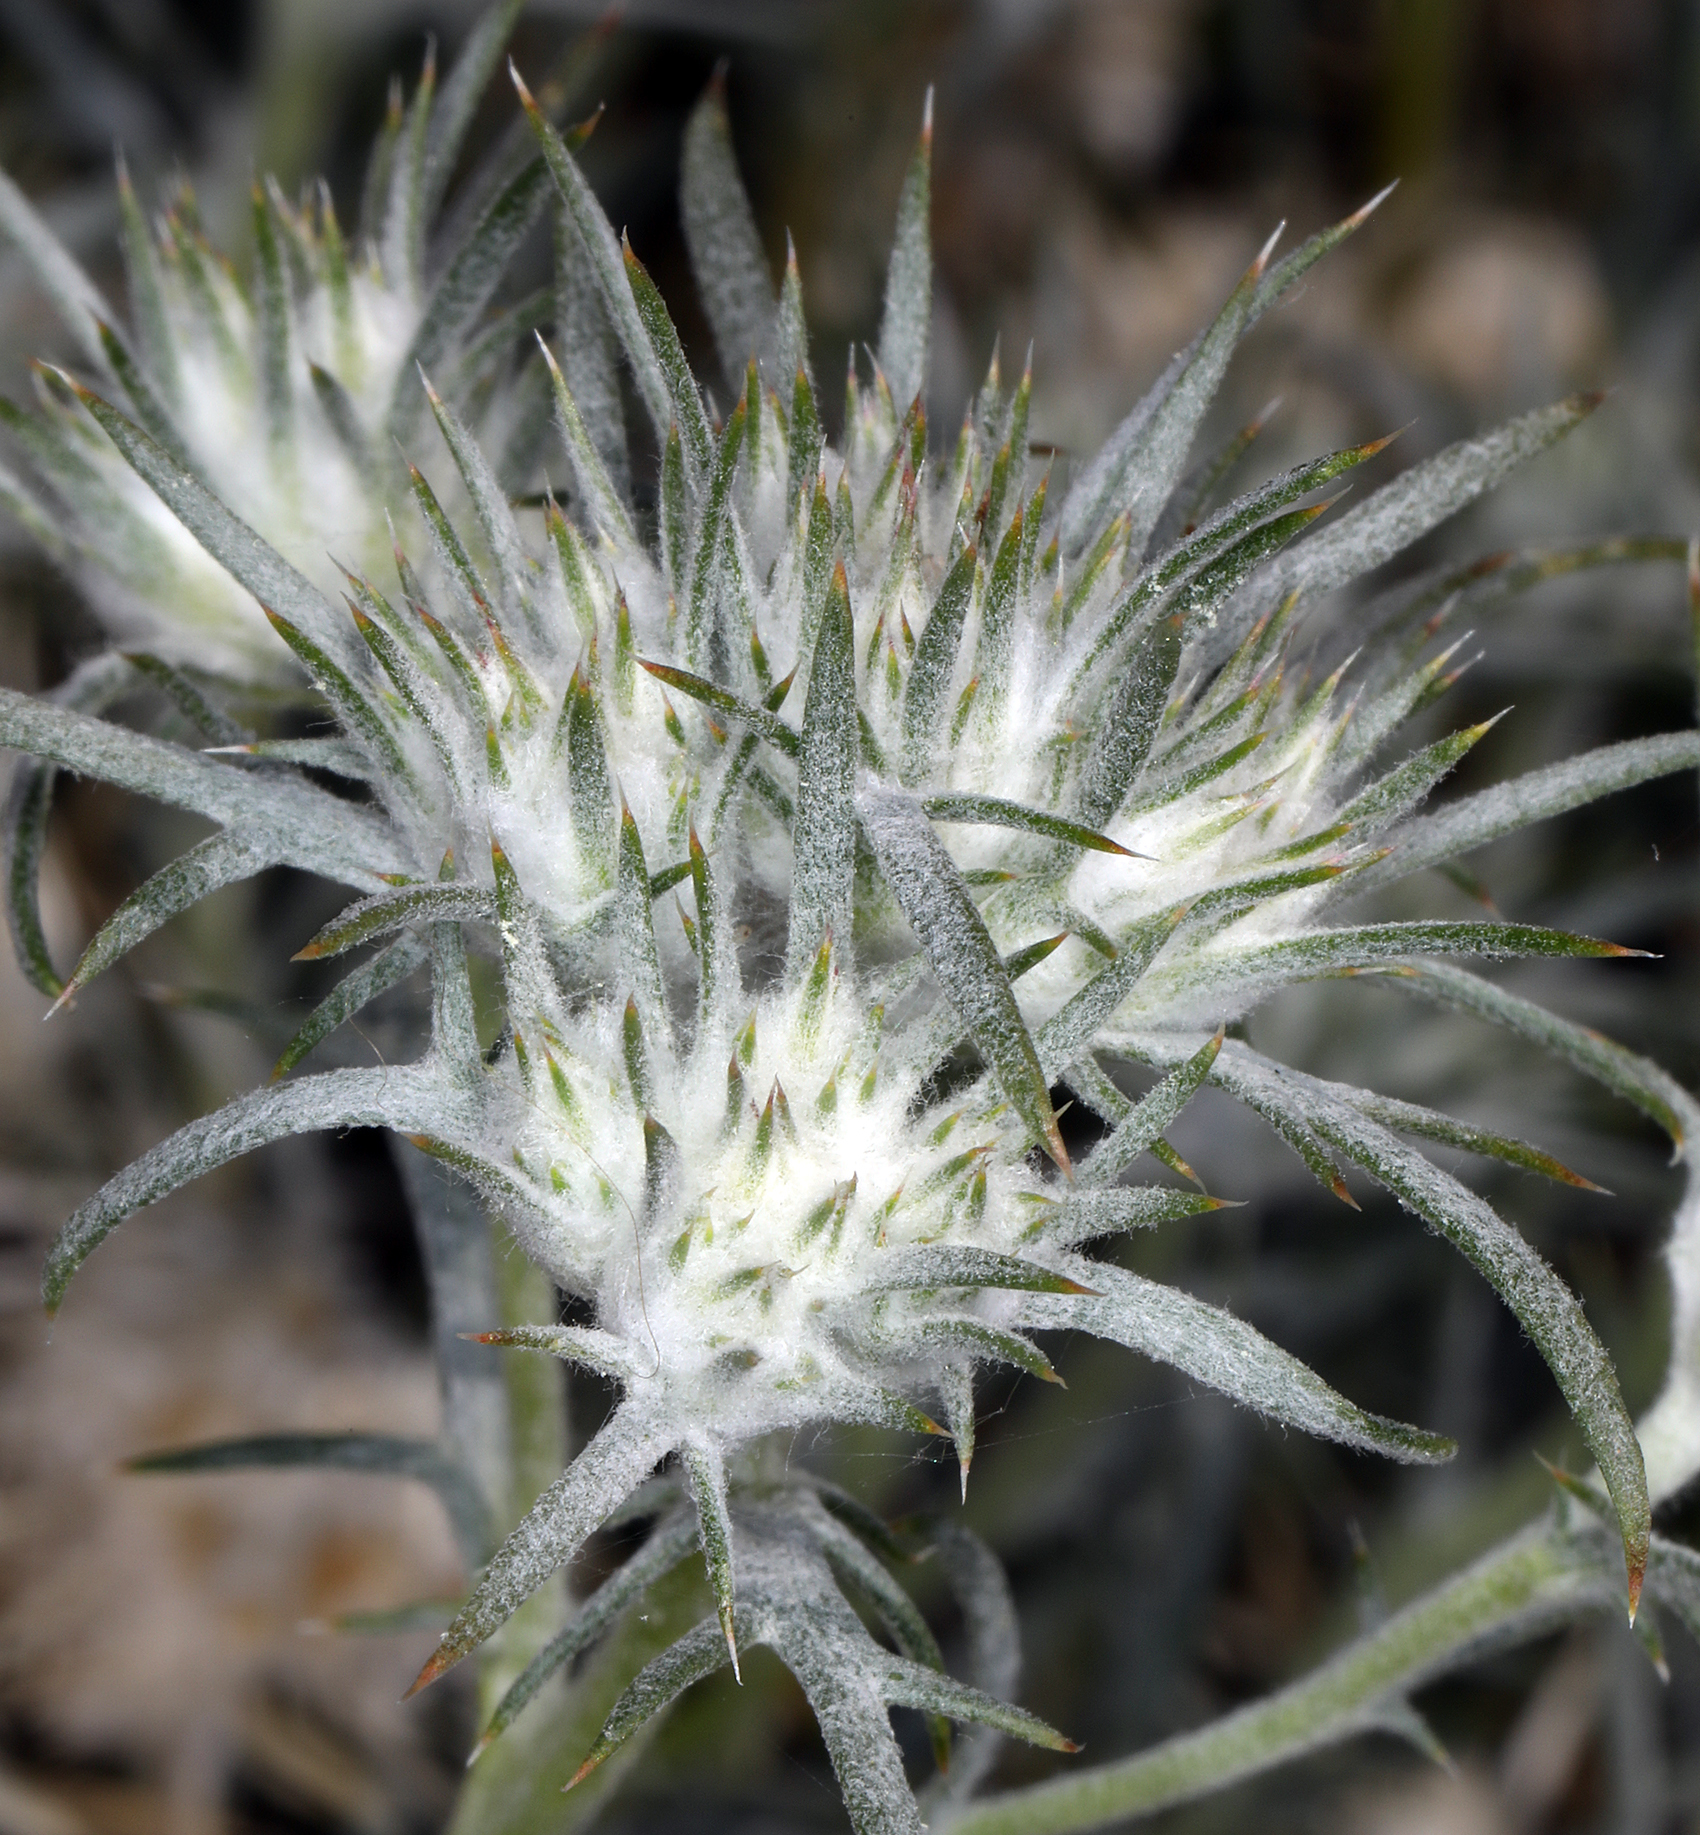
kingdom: Plantae
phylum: Tracheophyta
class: Magnoliopsida
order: Ericales
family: Polemoniaceae
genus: Eriastrum
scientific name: Eriastrum densifolium
